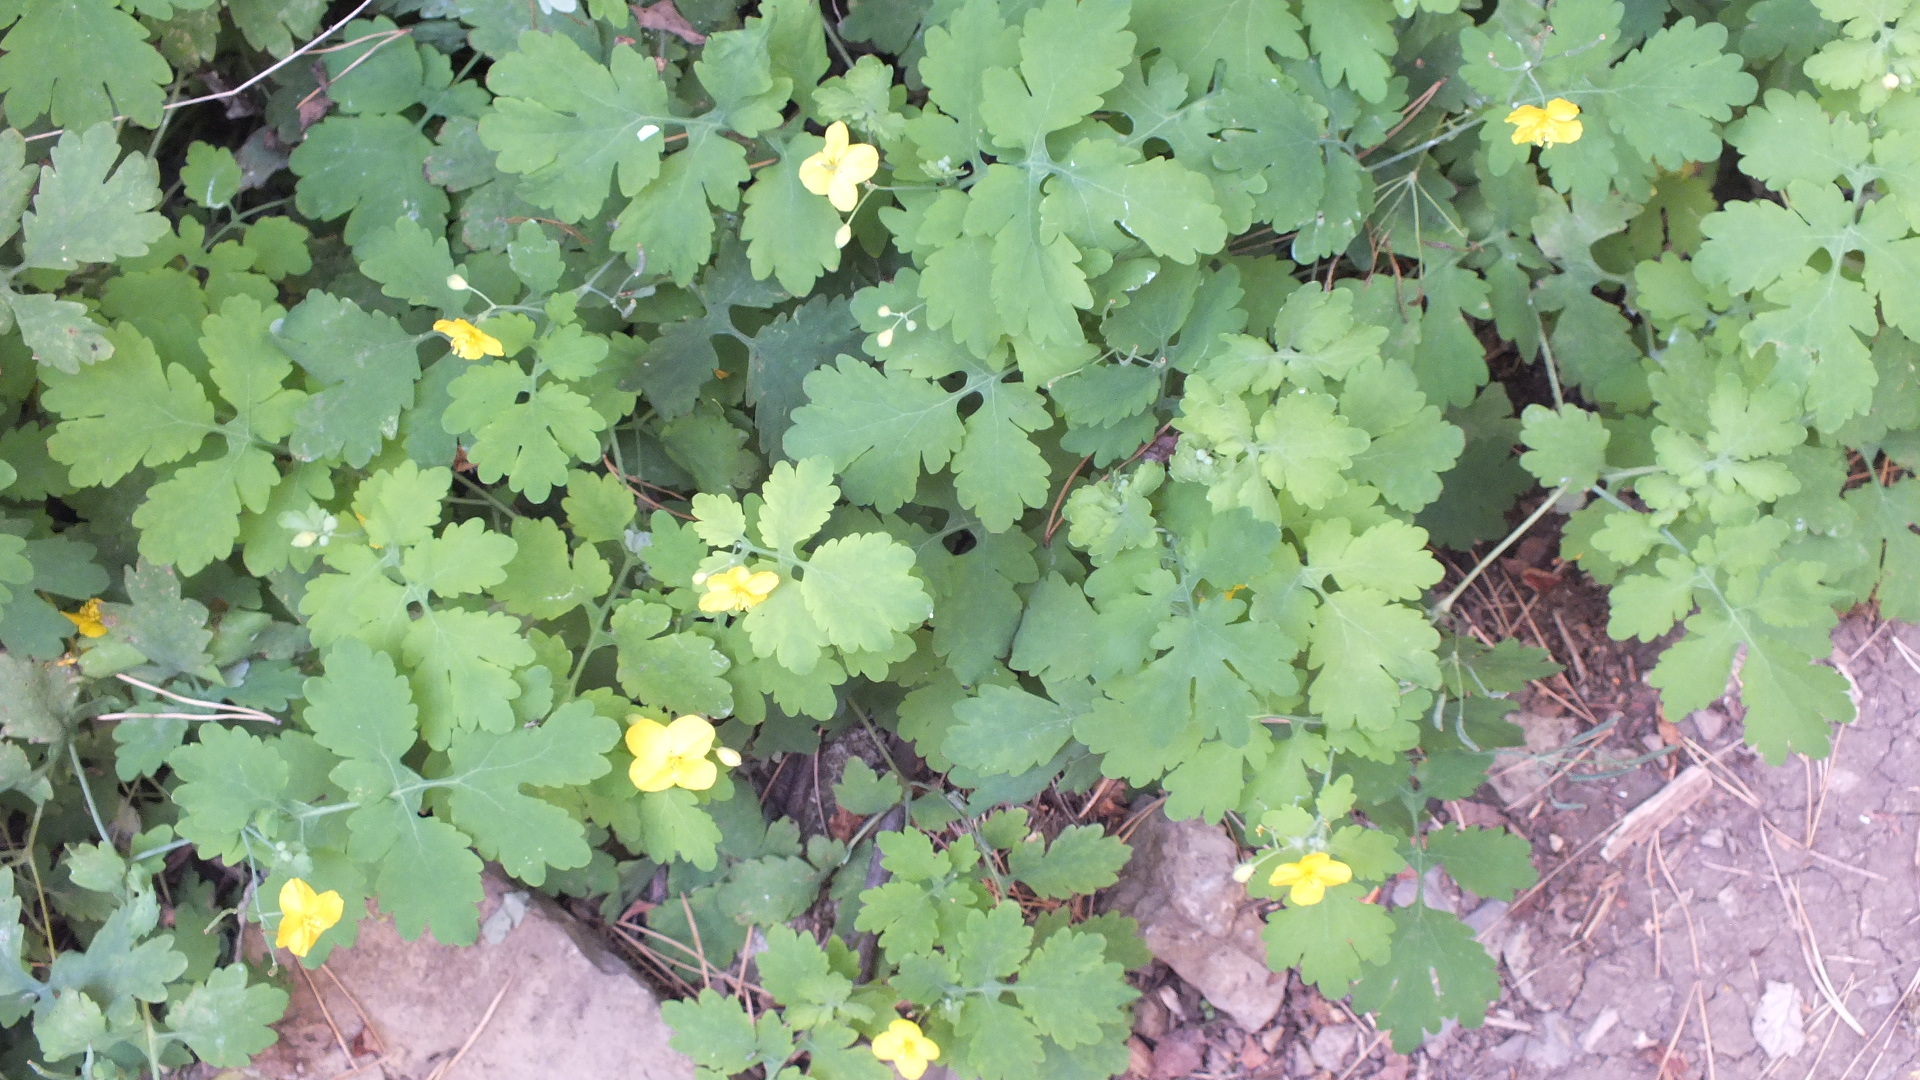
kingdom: Plantae
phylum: Tracheophyta
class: Magnoliopsida
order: Ranunculales
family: Papaveraceae
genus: Chelidonium
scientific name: Chelidonium majus
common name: Greater celandine
